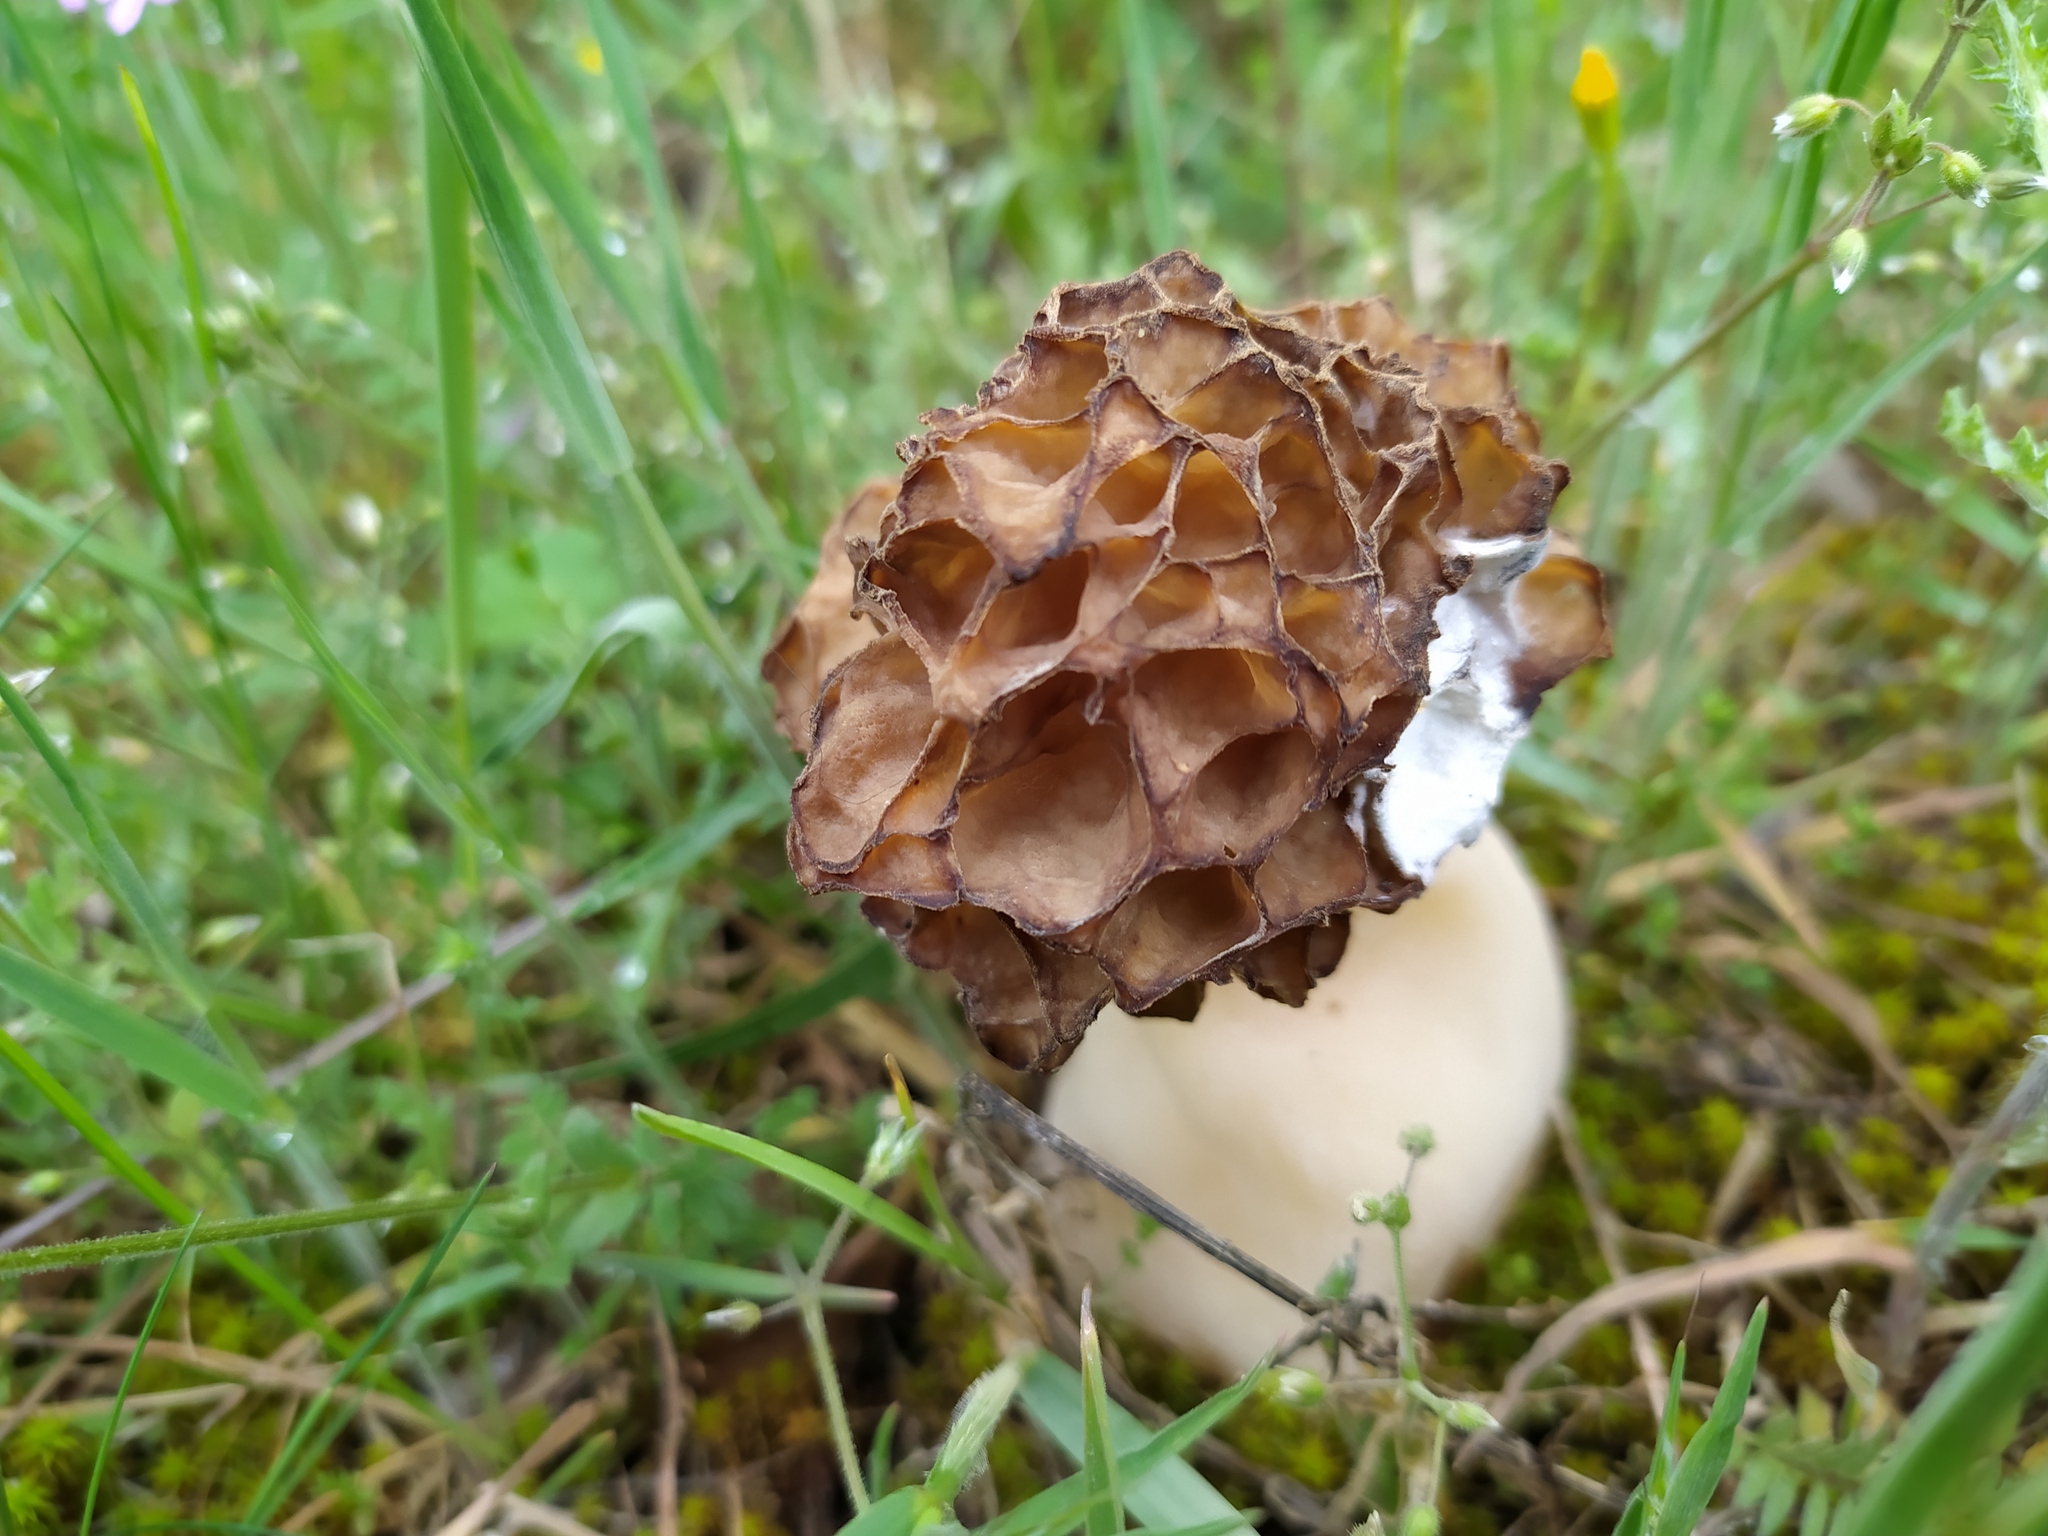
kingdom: Fungi
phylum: Ascomycota
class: Pezizomycetes
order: Pezizales
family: Morchellaceae
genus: Morchella
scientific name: Morchella esculenta
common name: Morel
